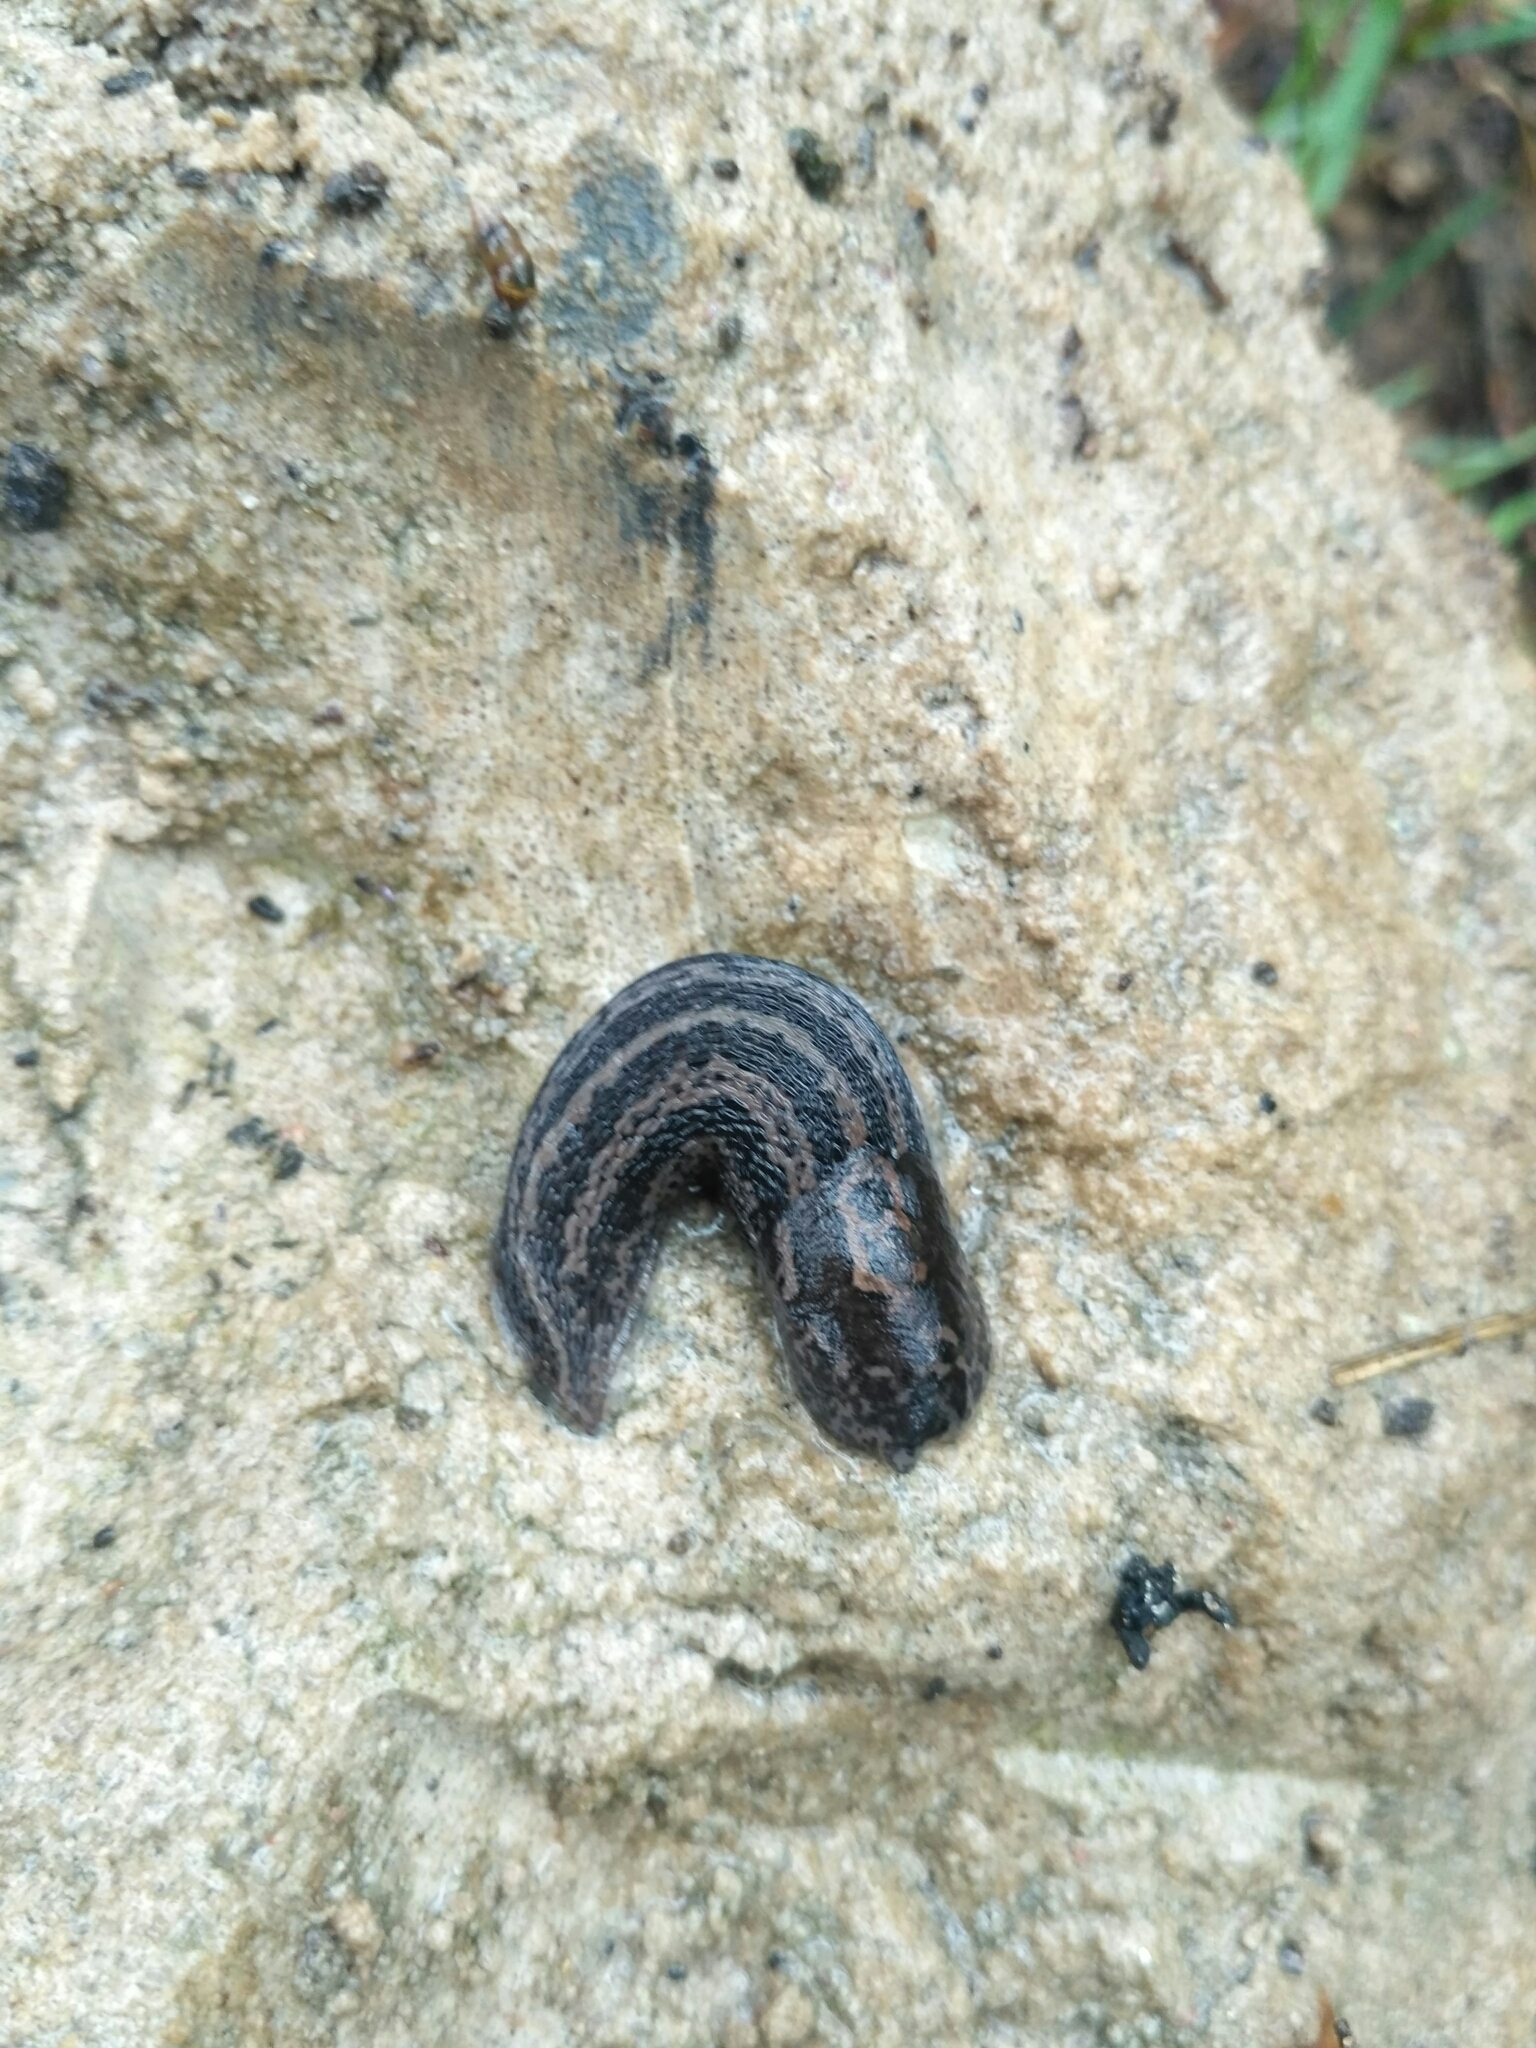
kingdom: Animalia
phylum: Mollusca
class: Gastropoda
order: Stylommatophora
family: Limacidae
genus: Limax
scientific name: Limax maximus
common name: Great grey slug
